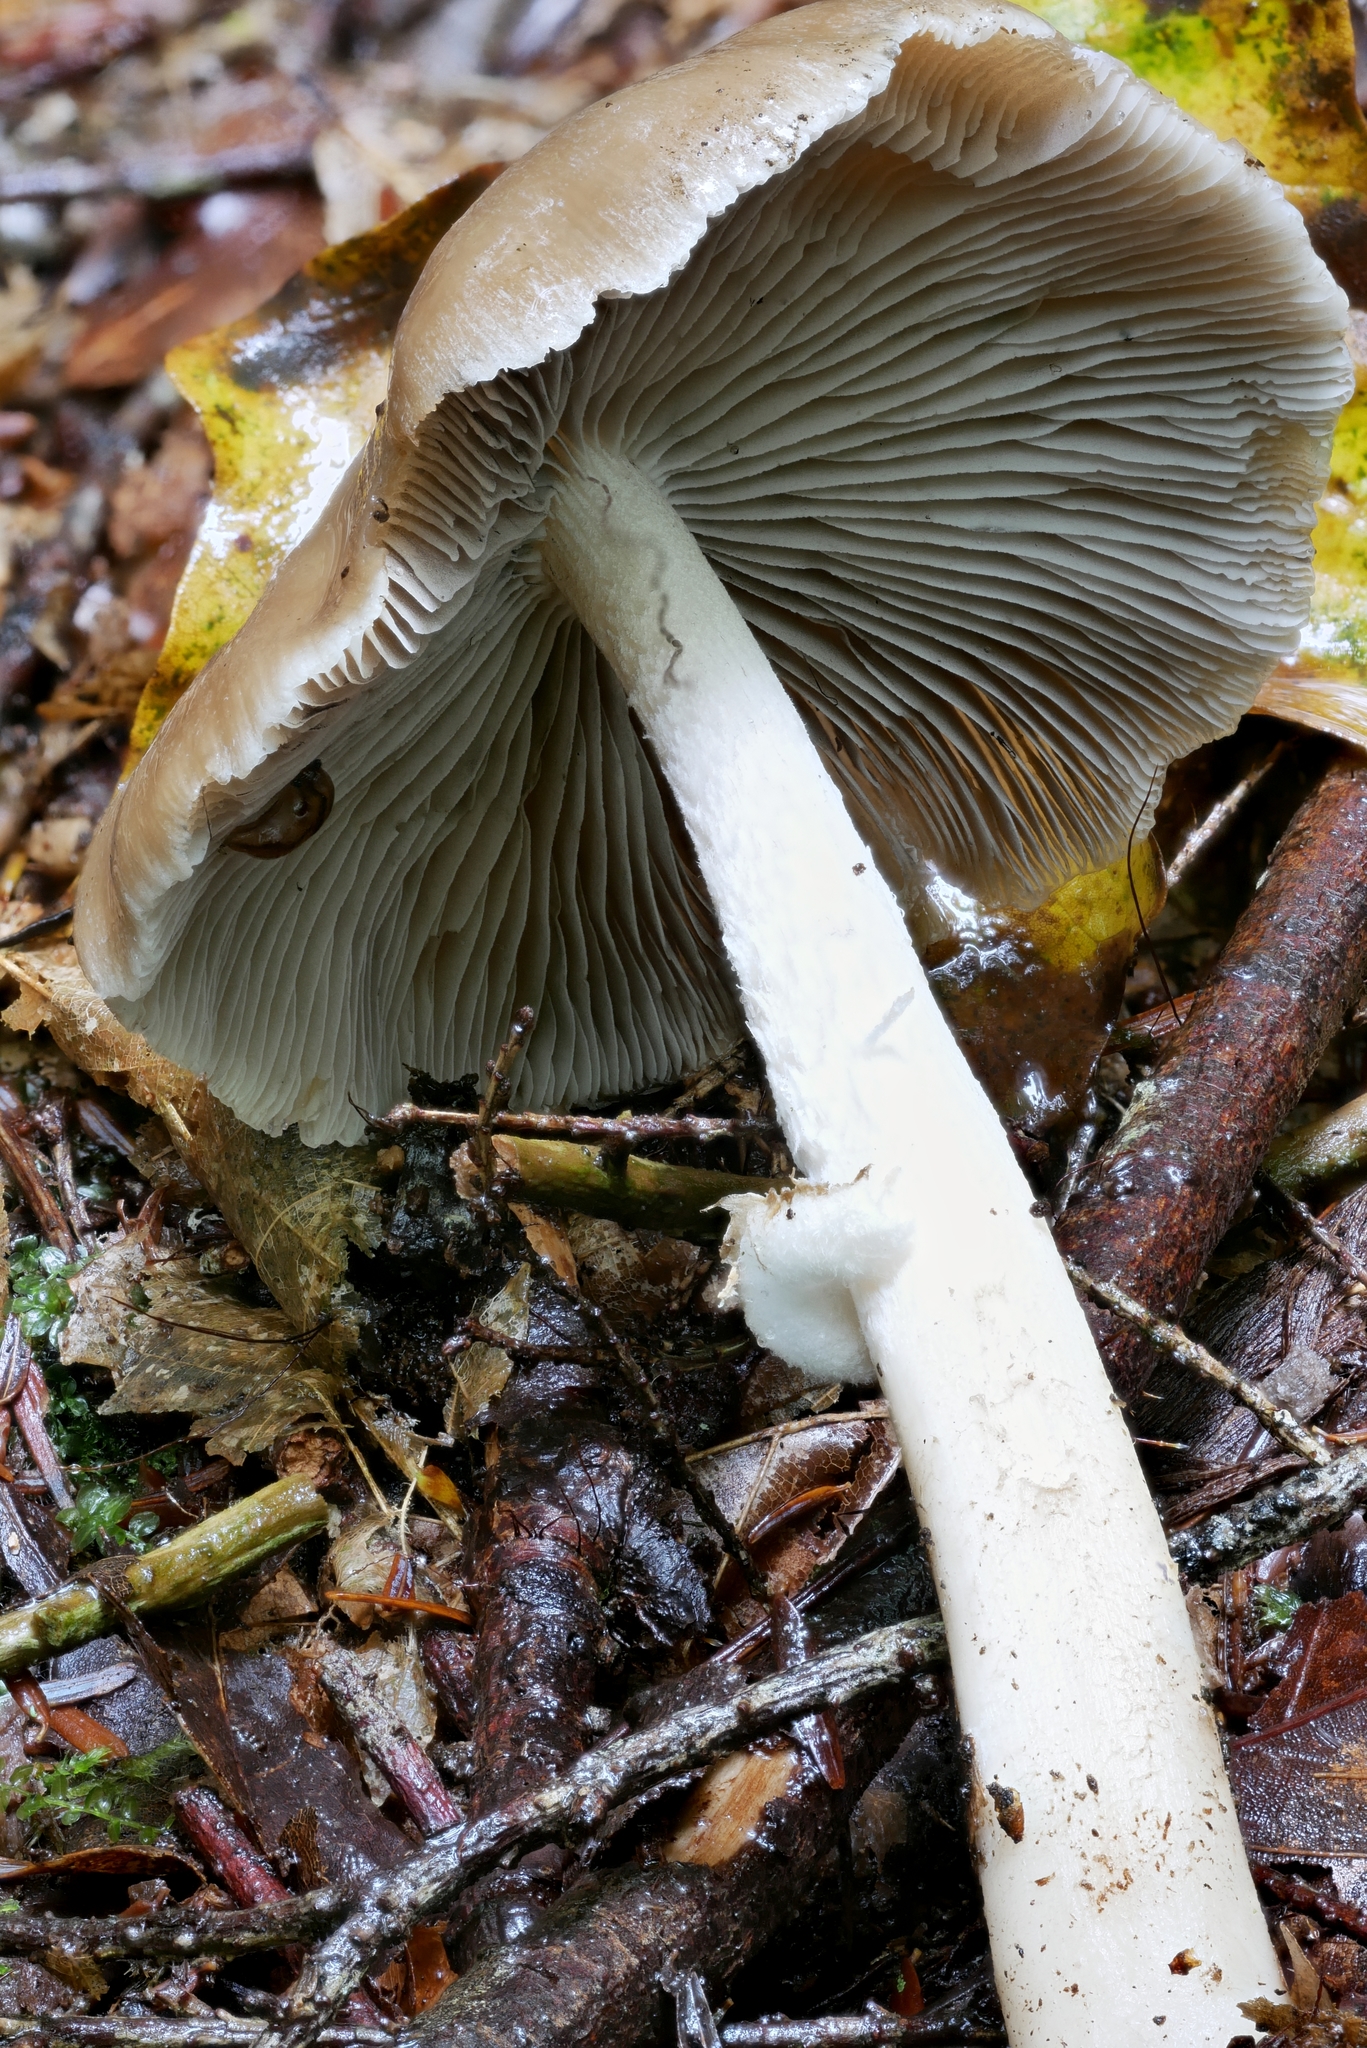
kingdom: Fungi
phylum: Basidiomycota
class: Agaricomycetes
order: Agaricales
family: Psathyrellaceae
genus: Psathyrella
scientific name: Psathyrella kauffmanii
